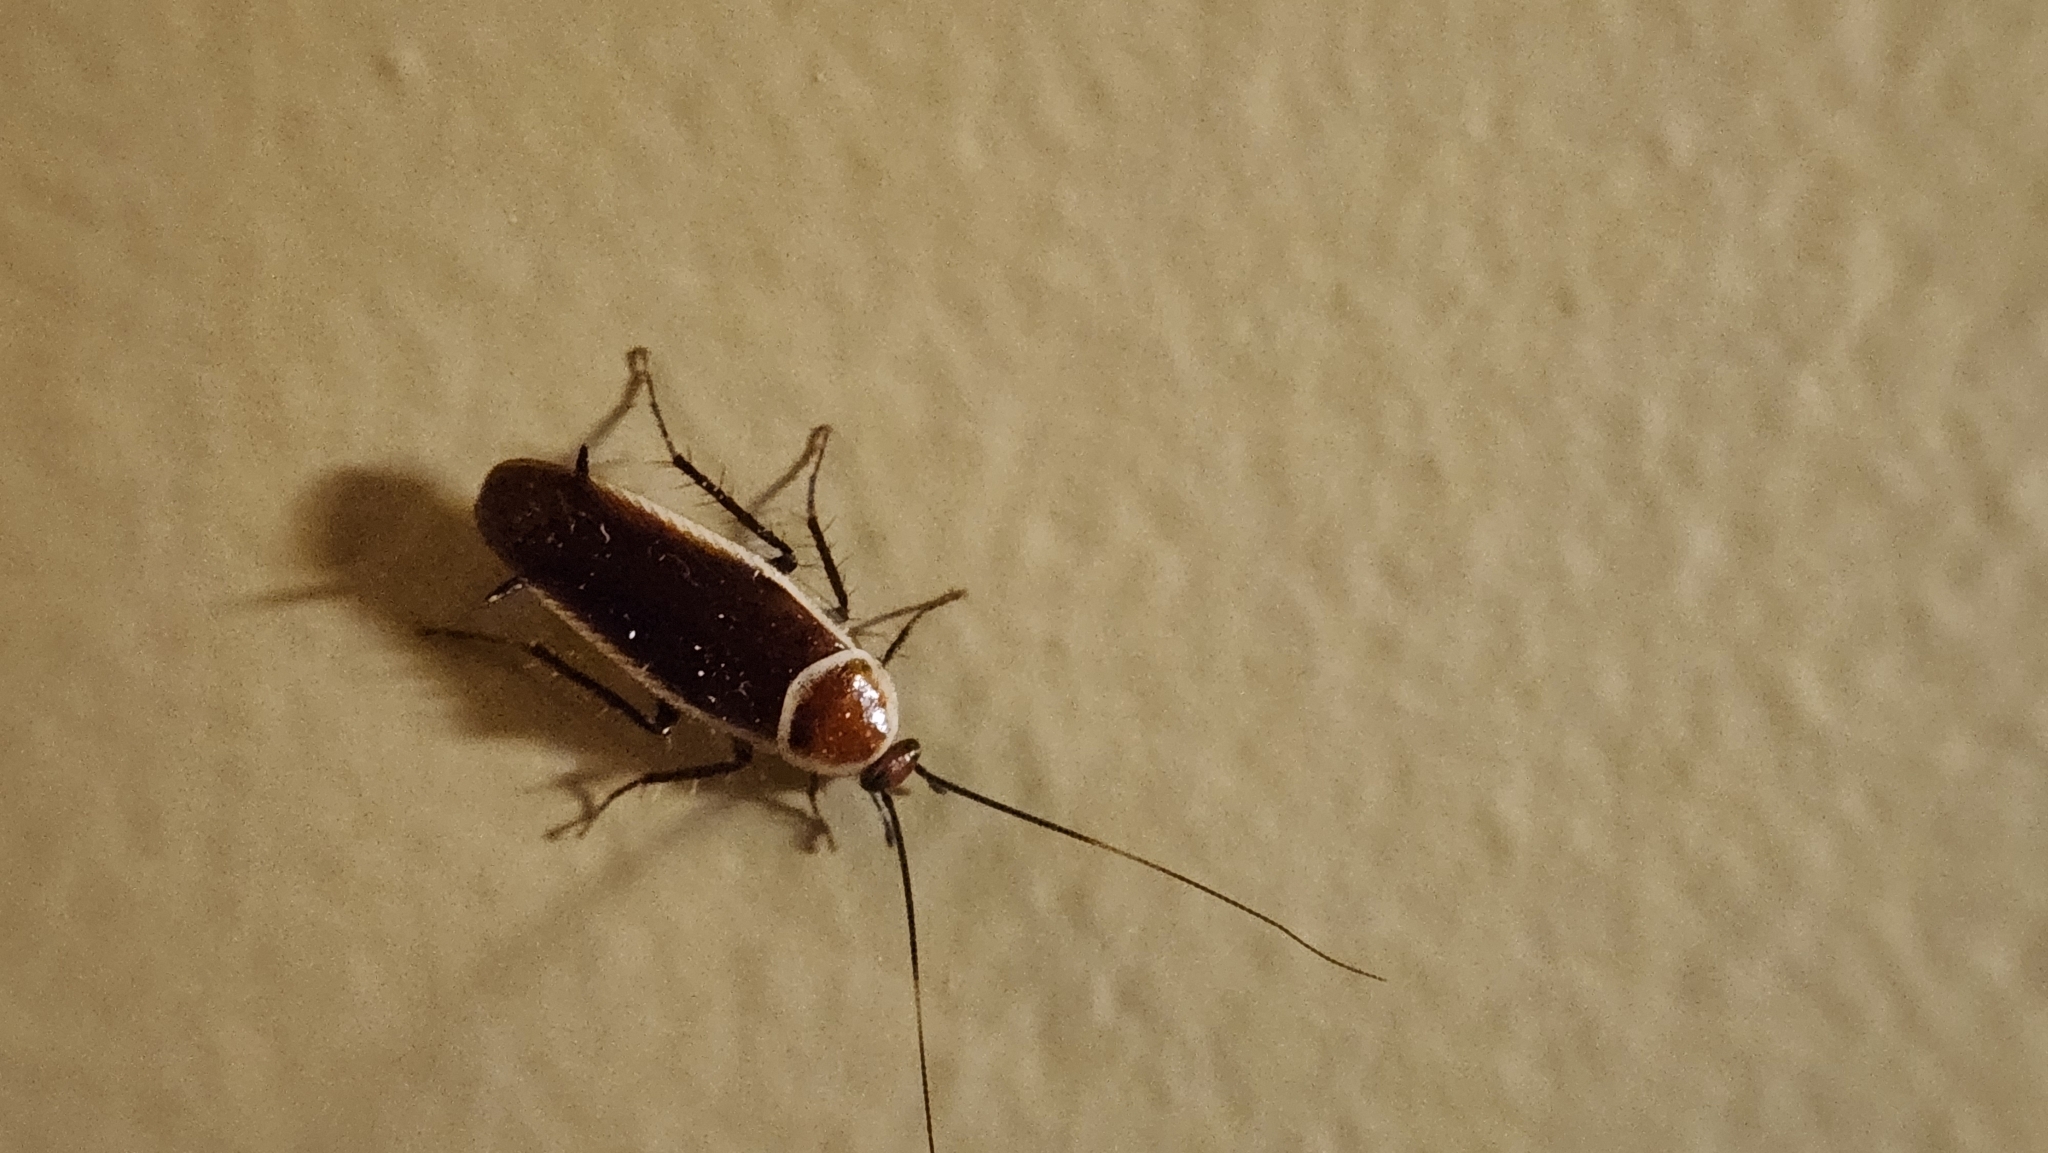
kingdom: Animalia
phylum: Arthropoda
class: Insecta
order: Blattodea
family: Ectobiidae
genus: Pseudomops
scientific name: Pseudomops septentrionalis
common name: Pale-bordered field cockroach
